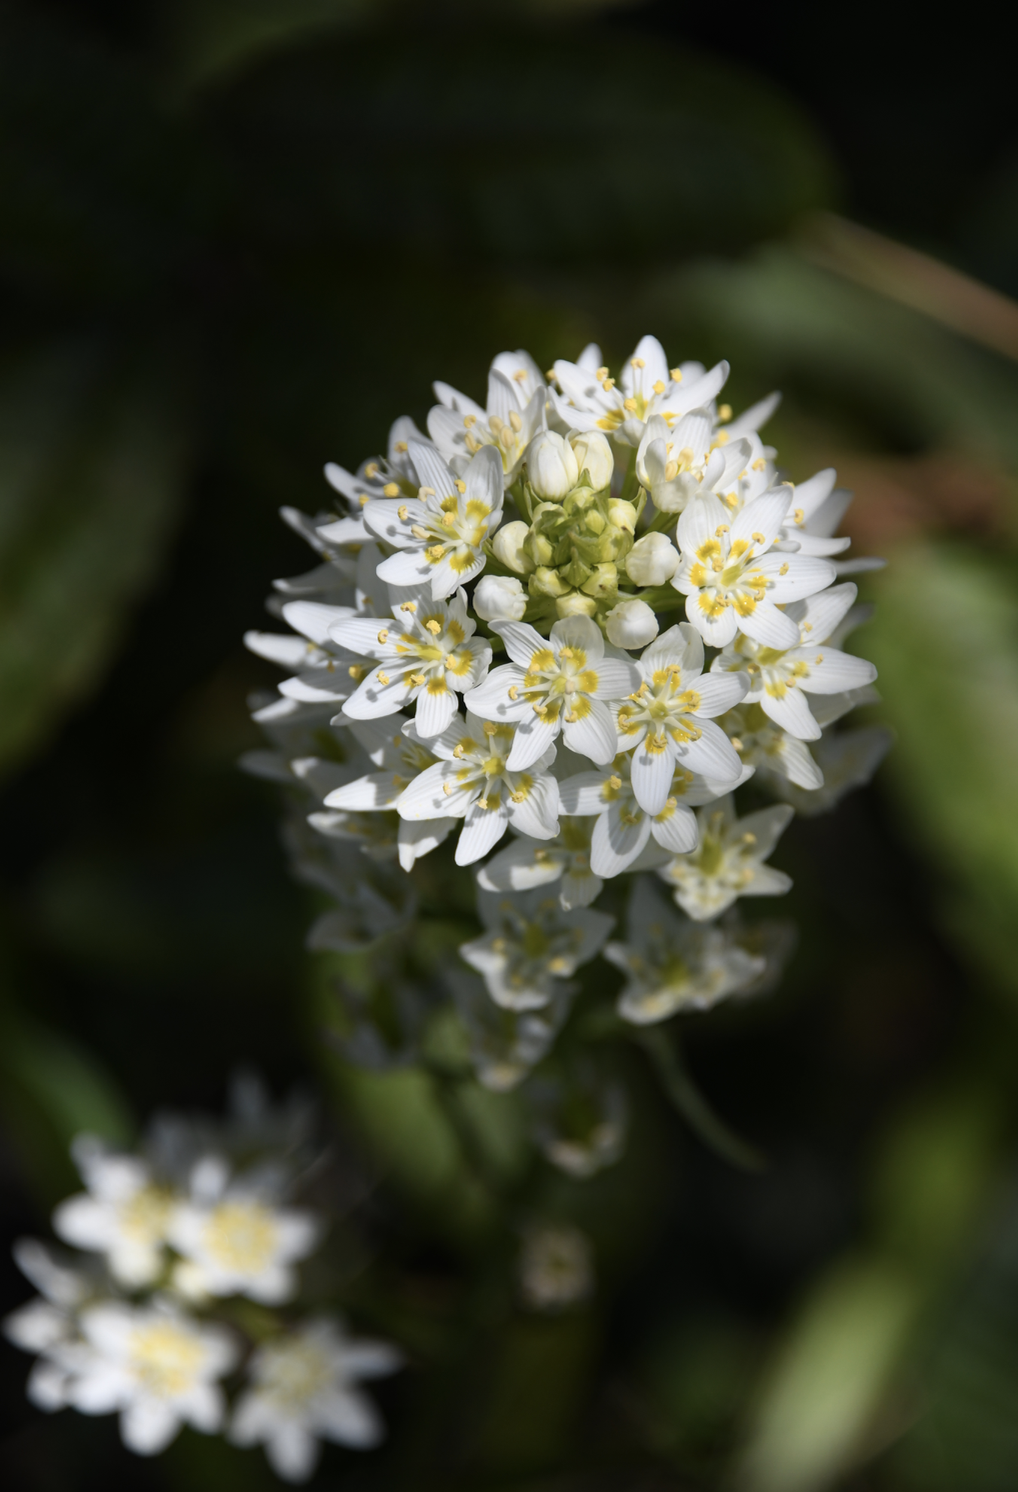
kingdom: Plantae
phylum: Tracheophyta
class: Liliopsida
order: Liliales
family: Melanthiaceae
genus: Toxicoscordion
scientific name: Toxicoscordion fremontii
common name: Fremont's death camas
